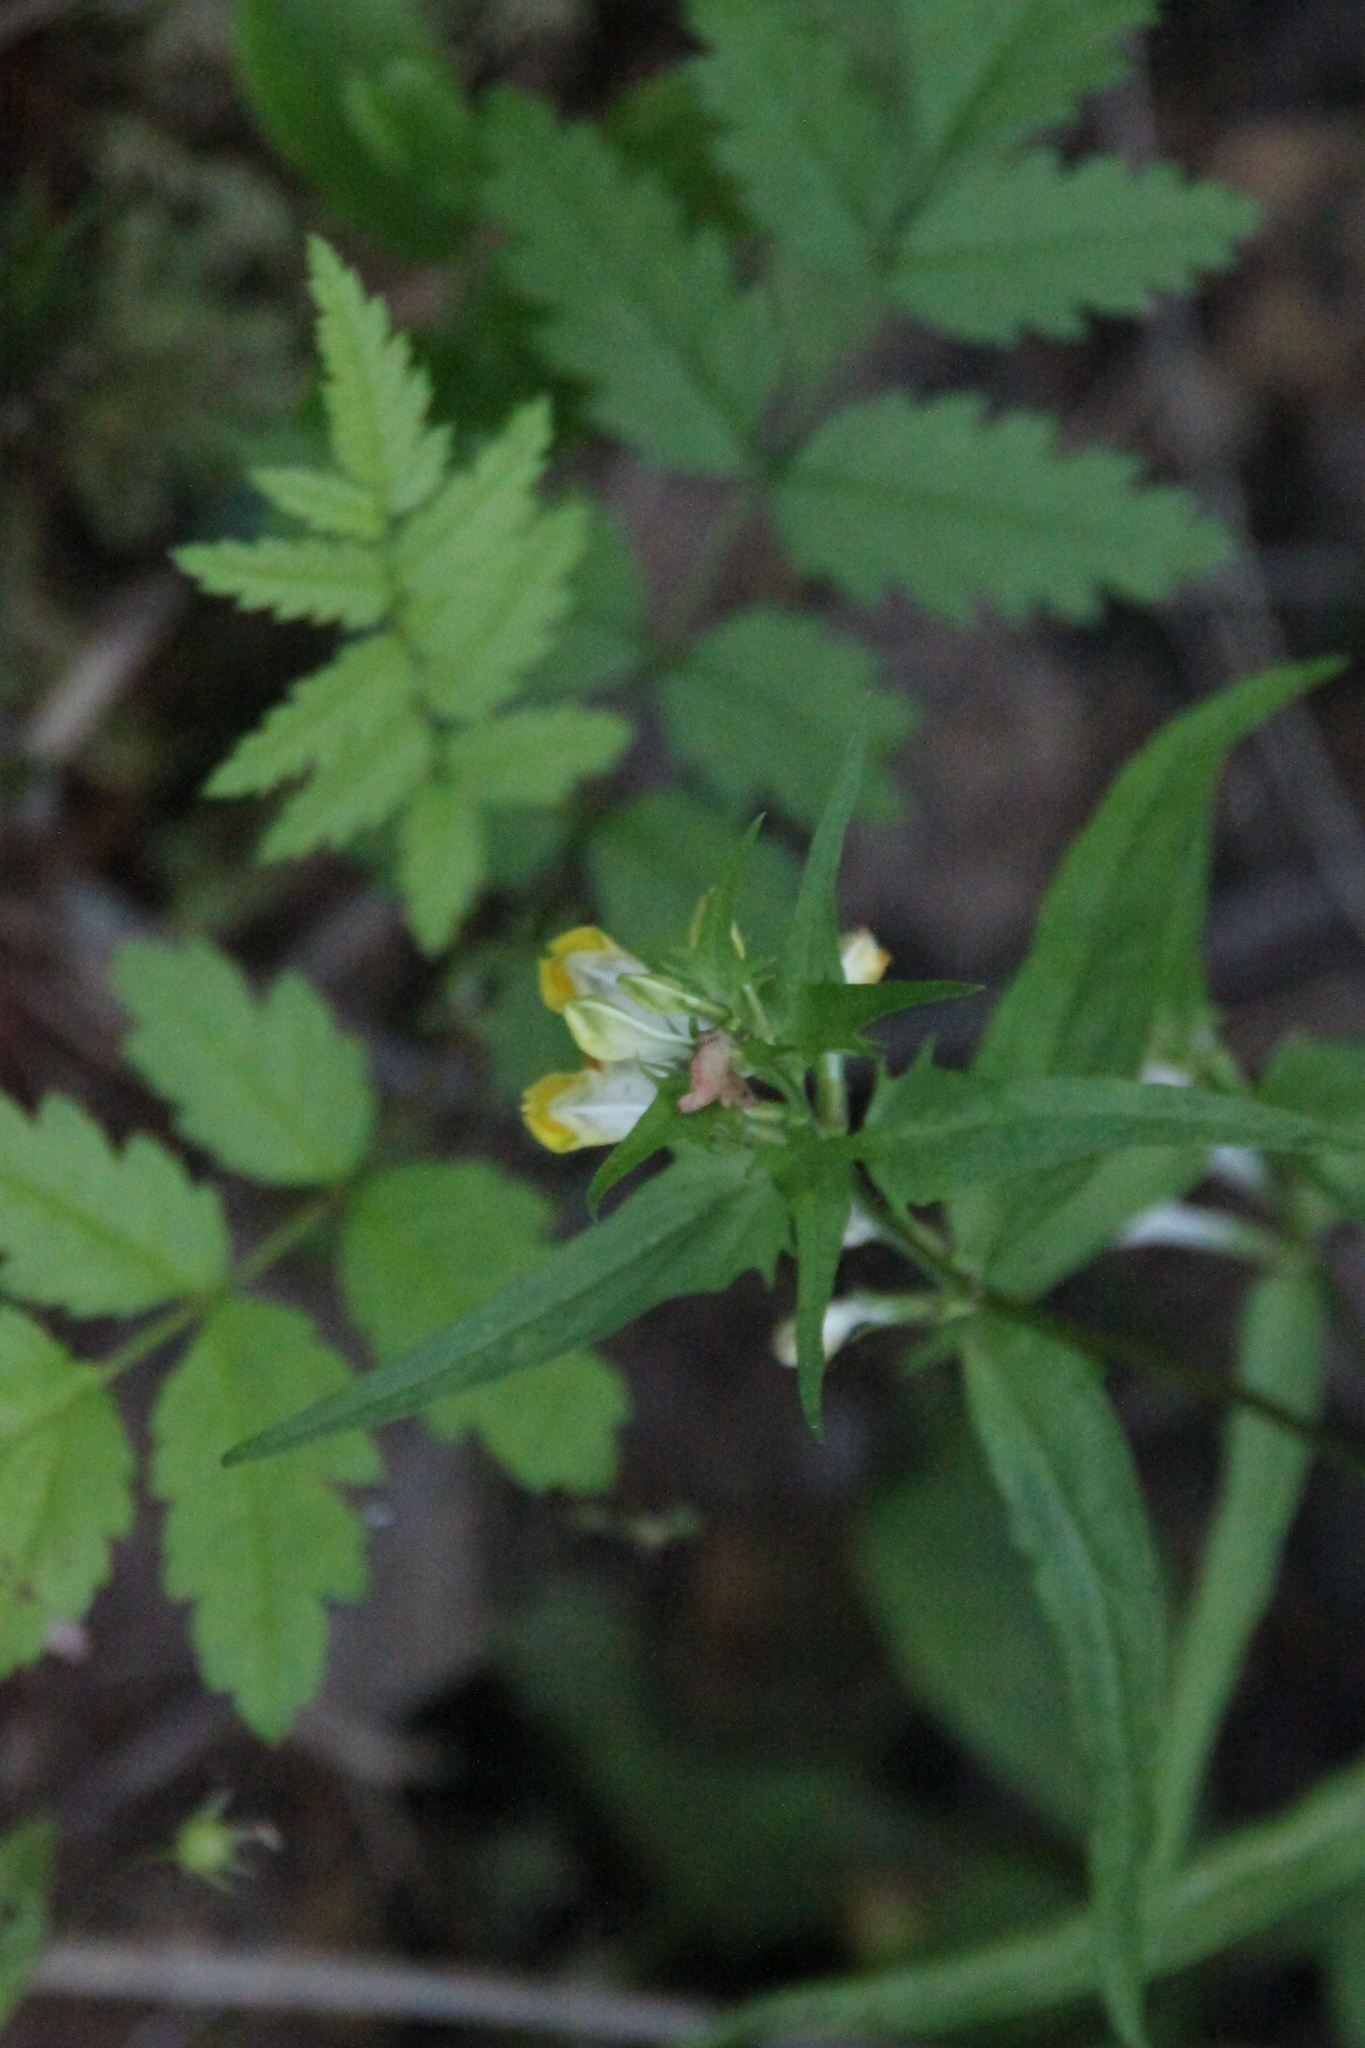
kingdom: Plantae
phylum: Tracheophyta
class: Magnoliopsida
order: Lamiales
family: Orobanchaceae
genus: Melampyrum
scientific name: Melampyrum pratense
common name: Common cow-wheat
